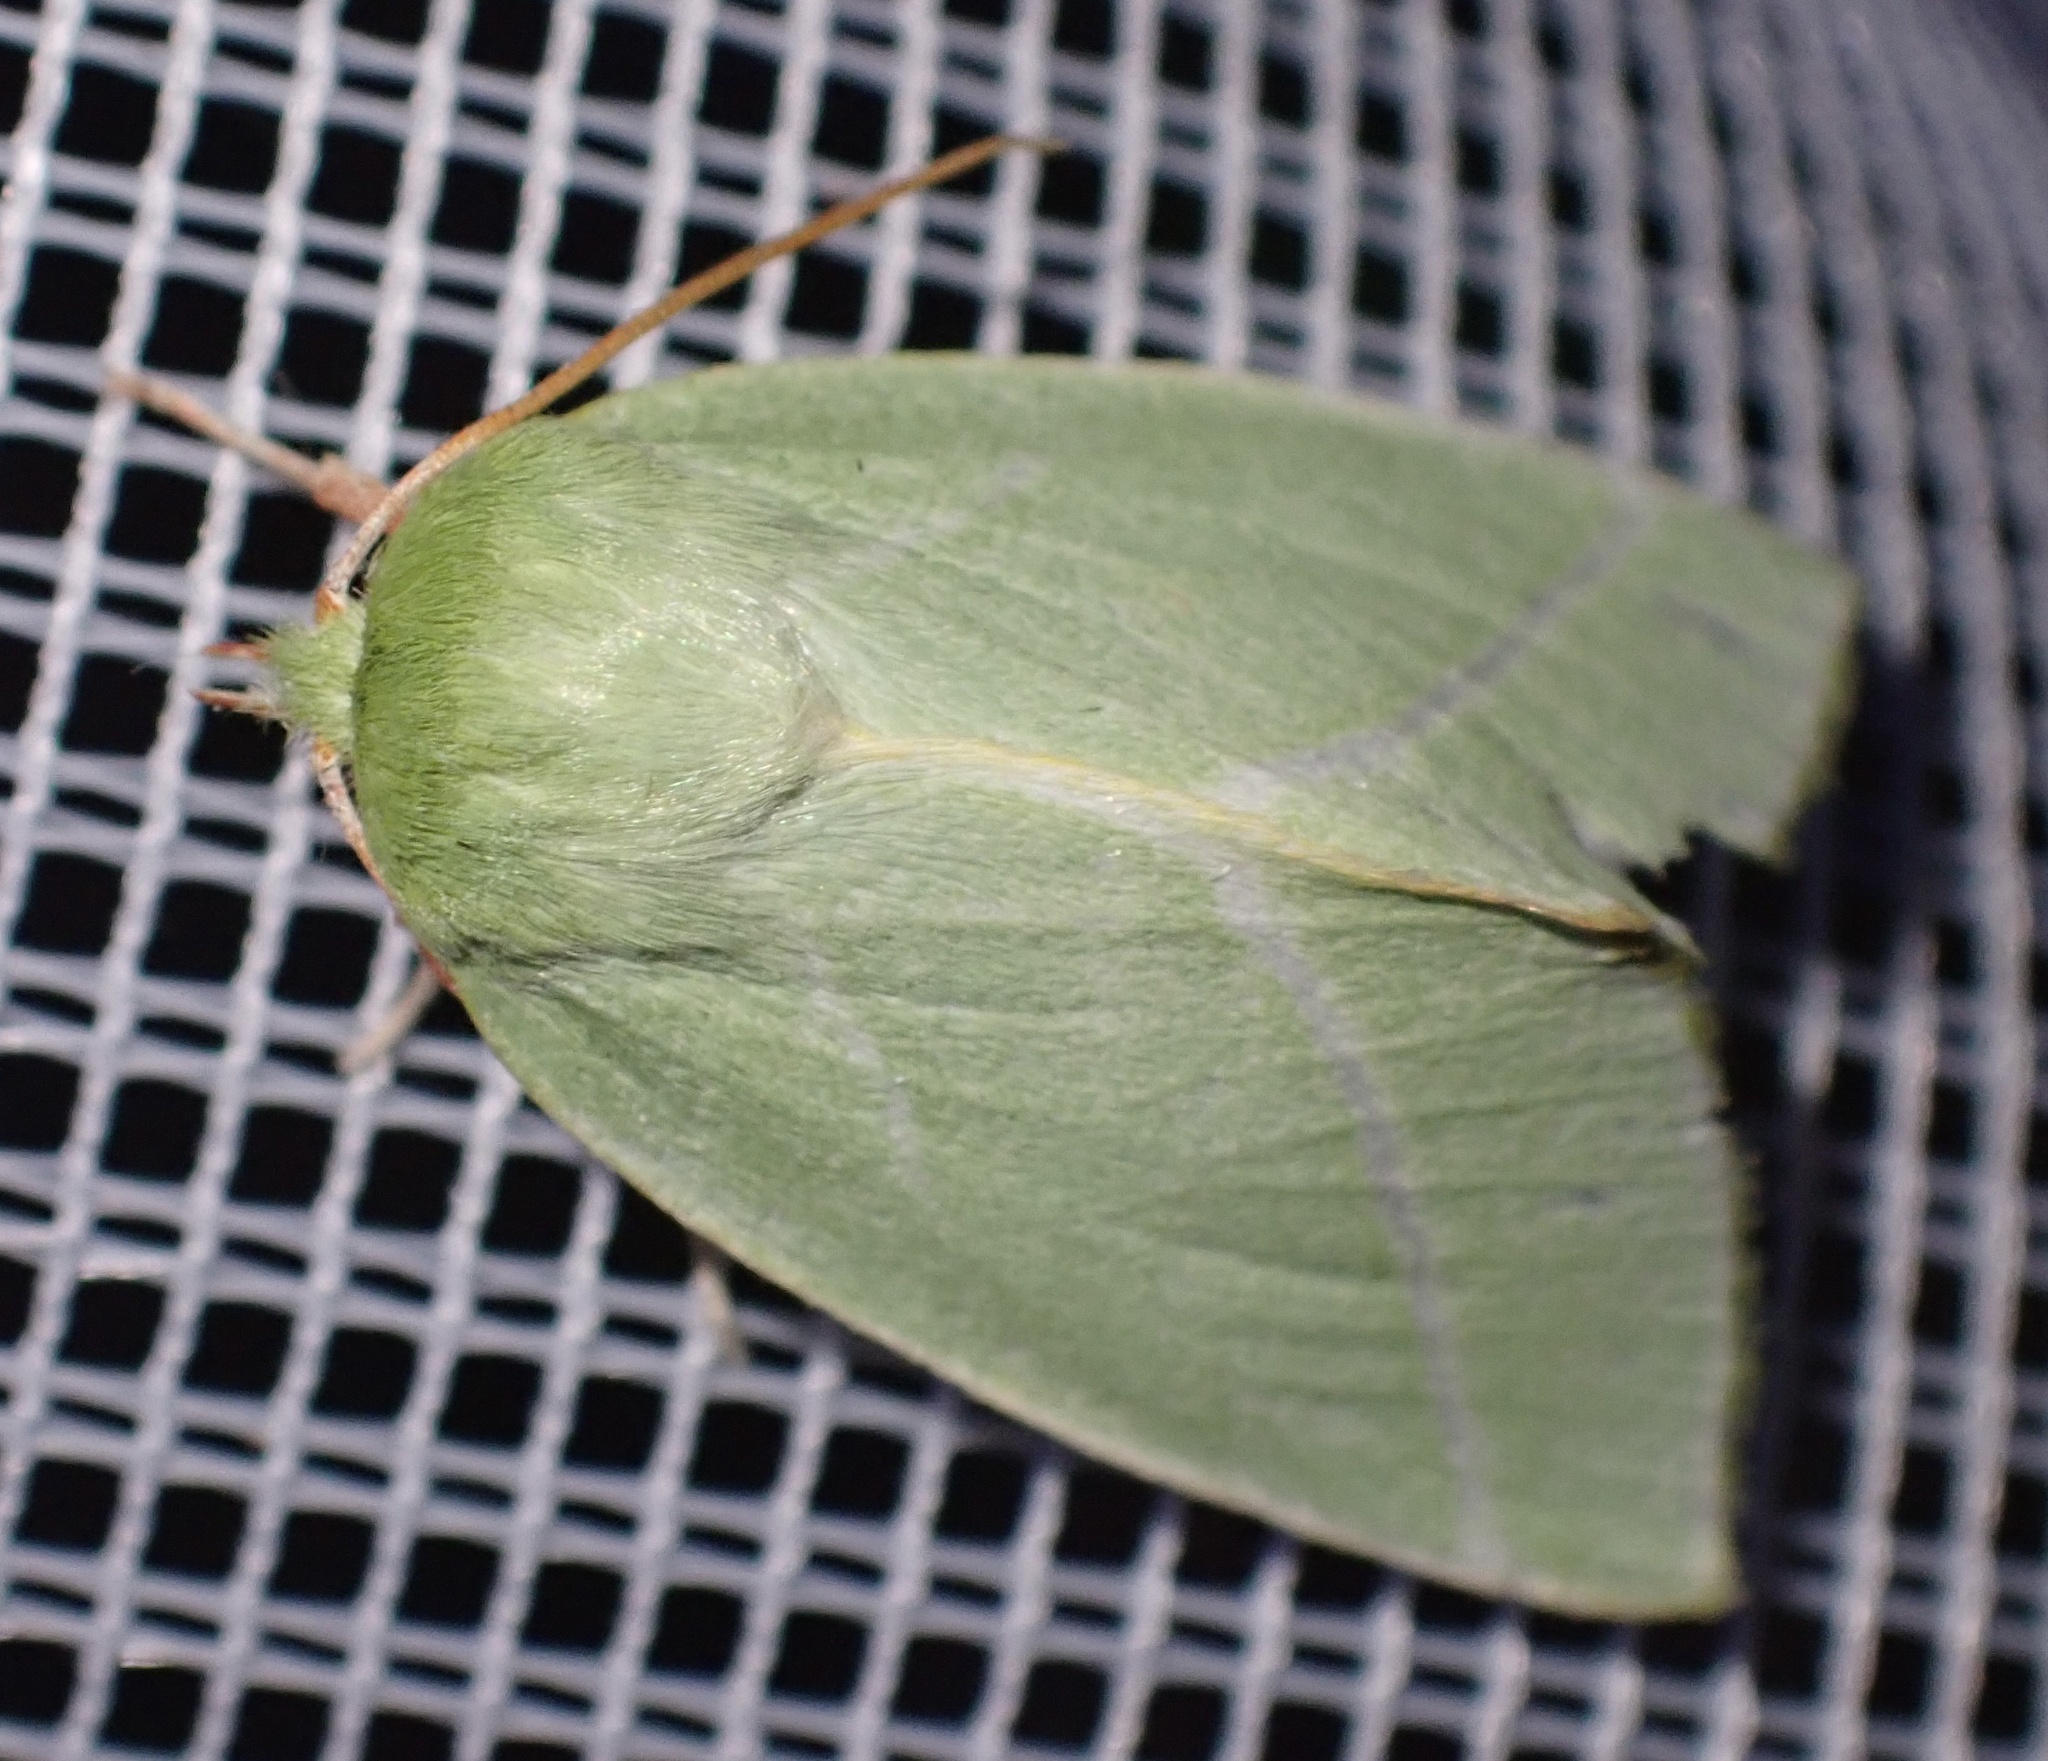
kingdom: Animalia
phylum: Arthropoda
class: Insecta
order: Lepidoptera
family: Nolidae
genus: Pseudoips
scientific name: Pseudoips prasinana
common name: Green silver-lines
